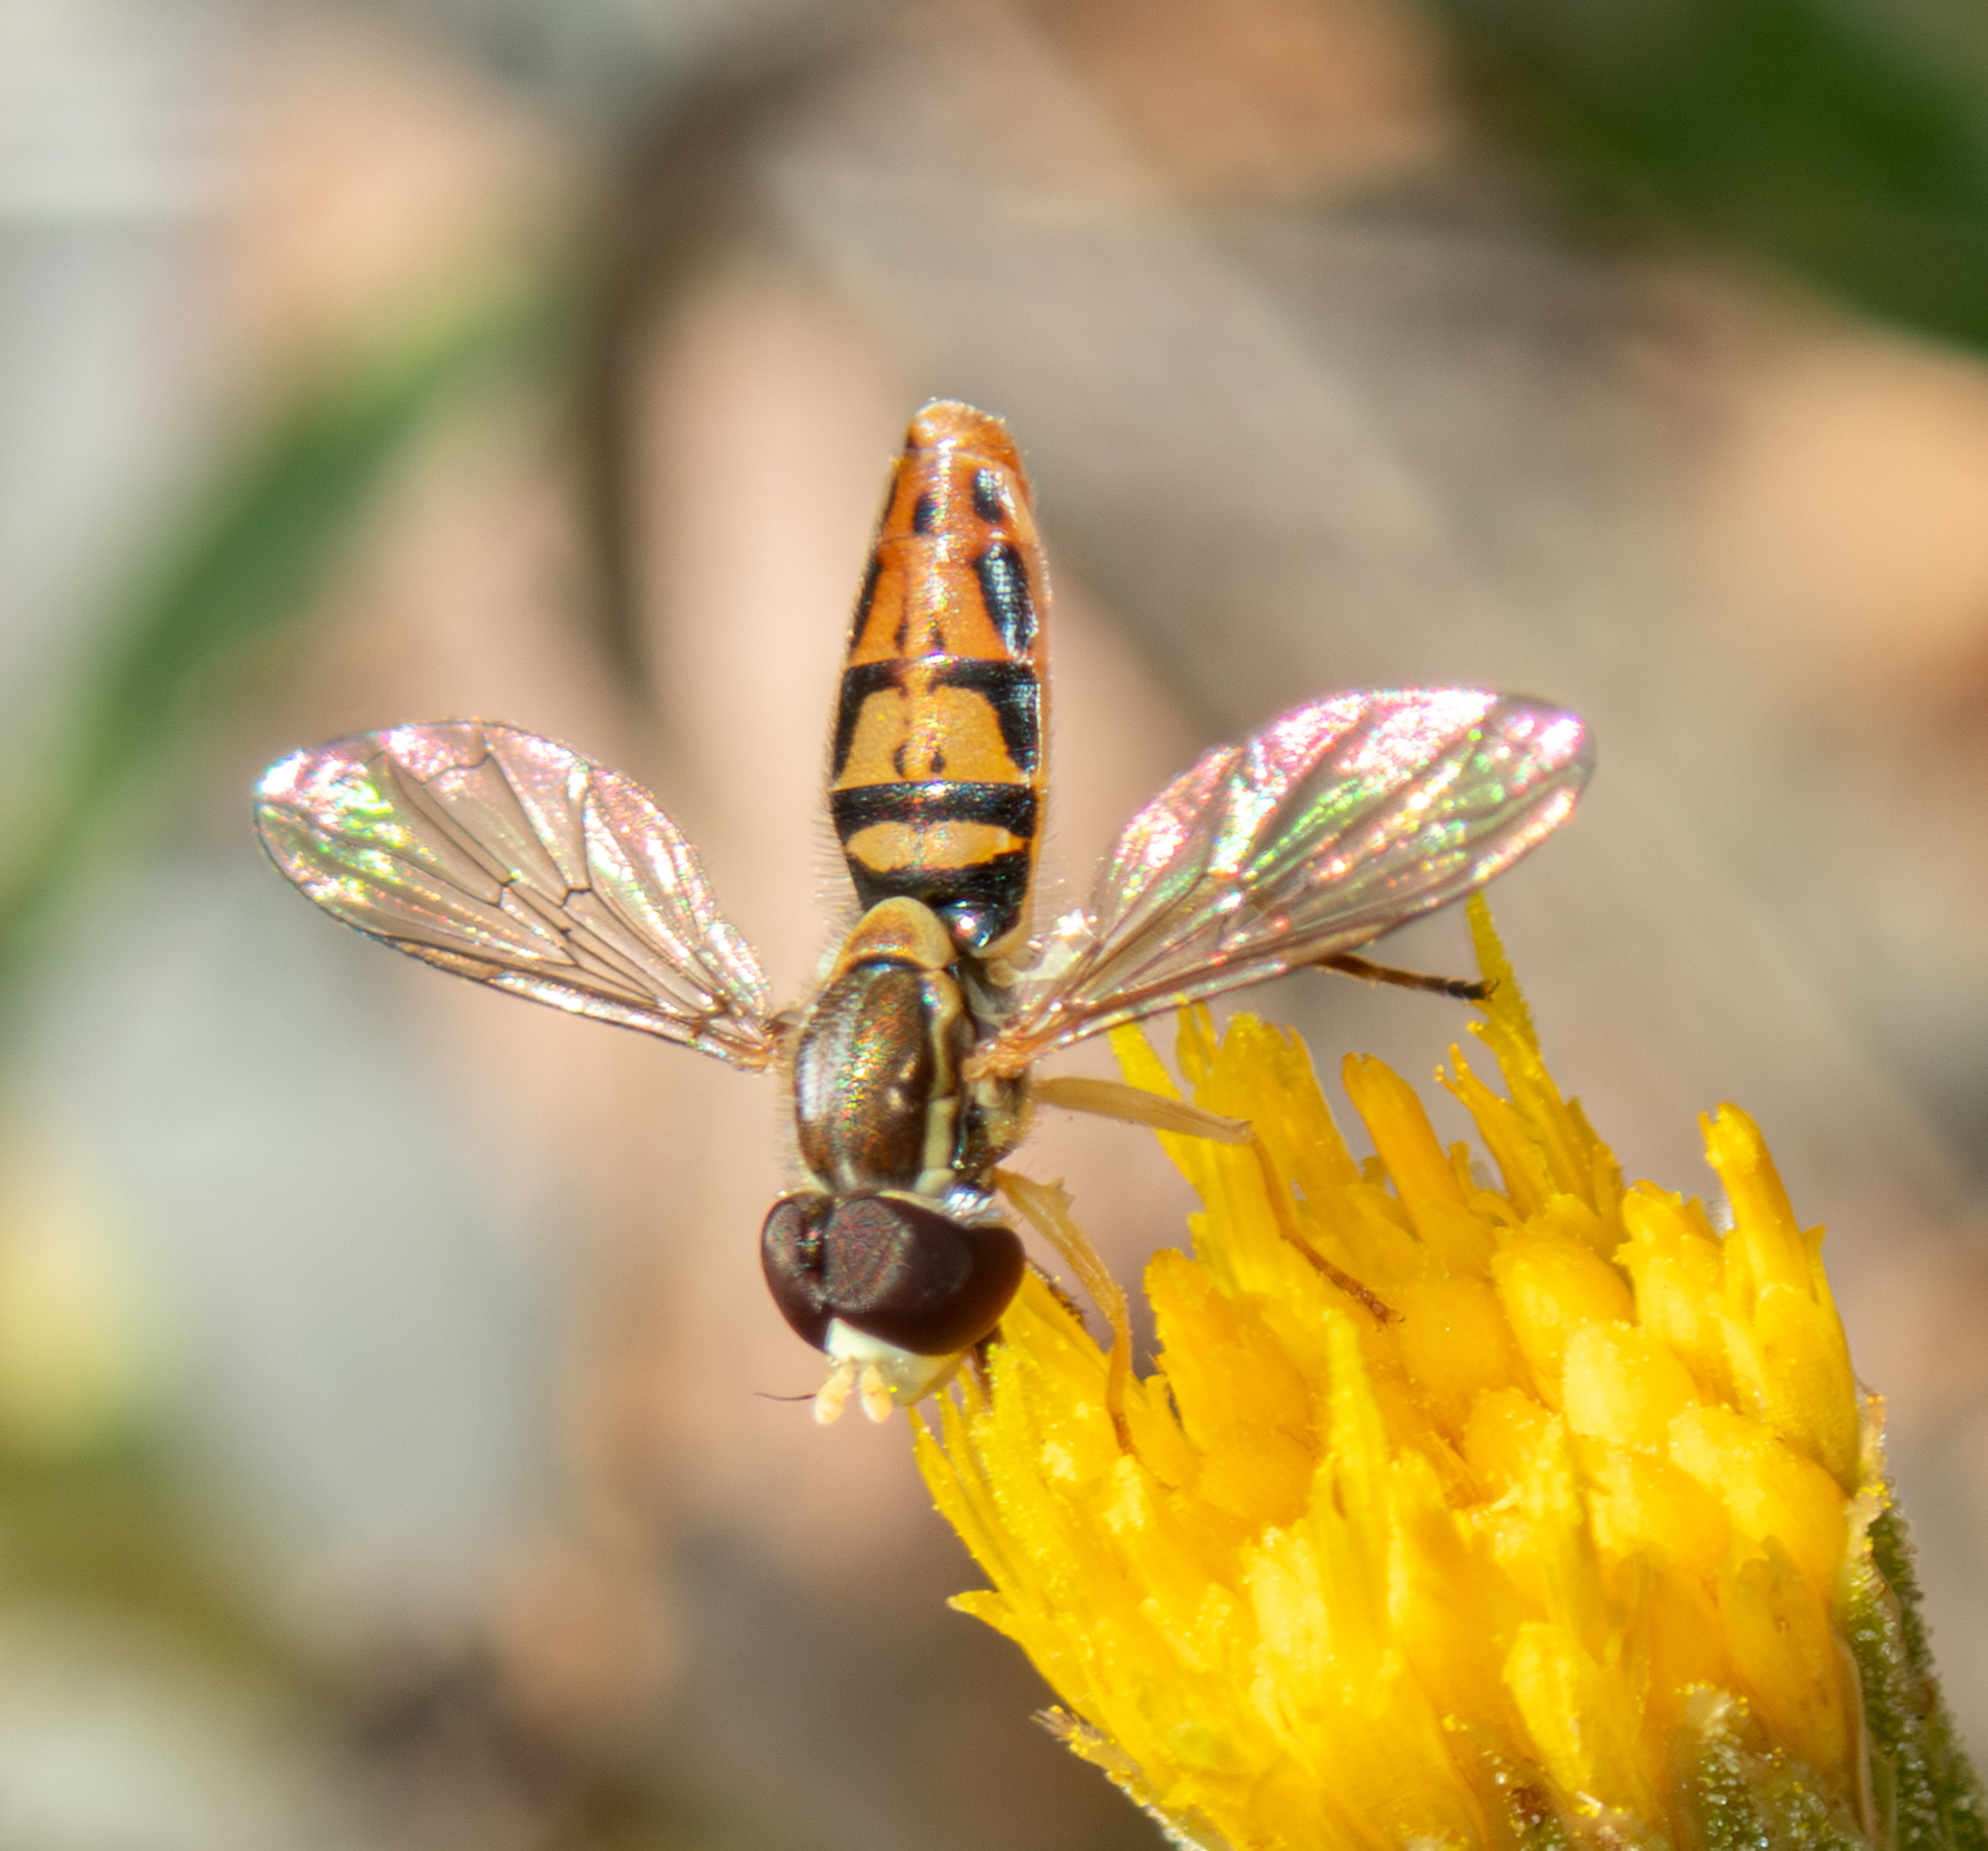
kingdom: Animalia
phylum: Arthropoda
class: Insecta
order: Diptera
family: Syrphidae
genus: Toxomerus
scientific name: Toxomerus marginatus
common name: Syrphid fly
